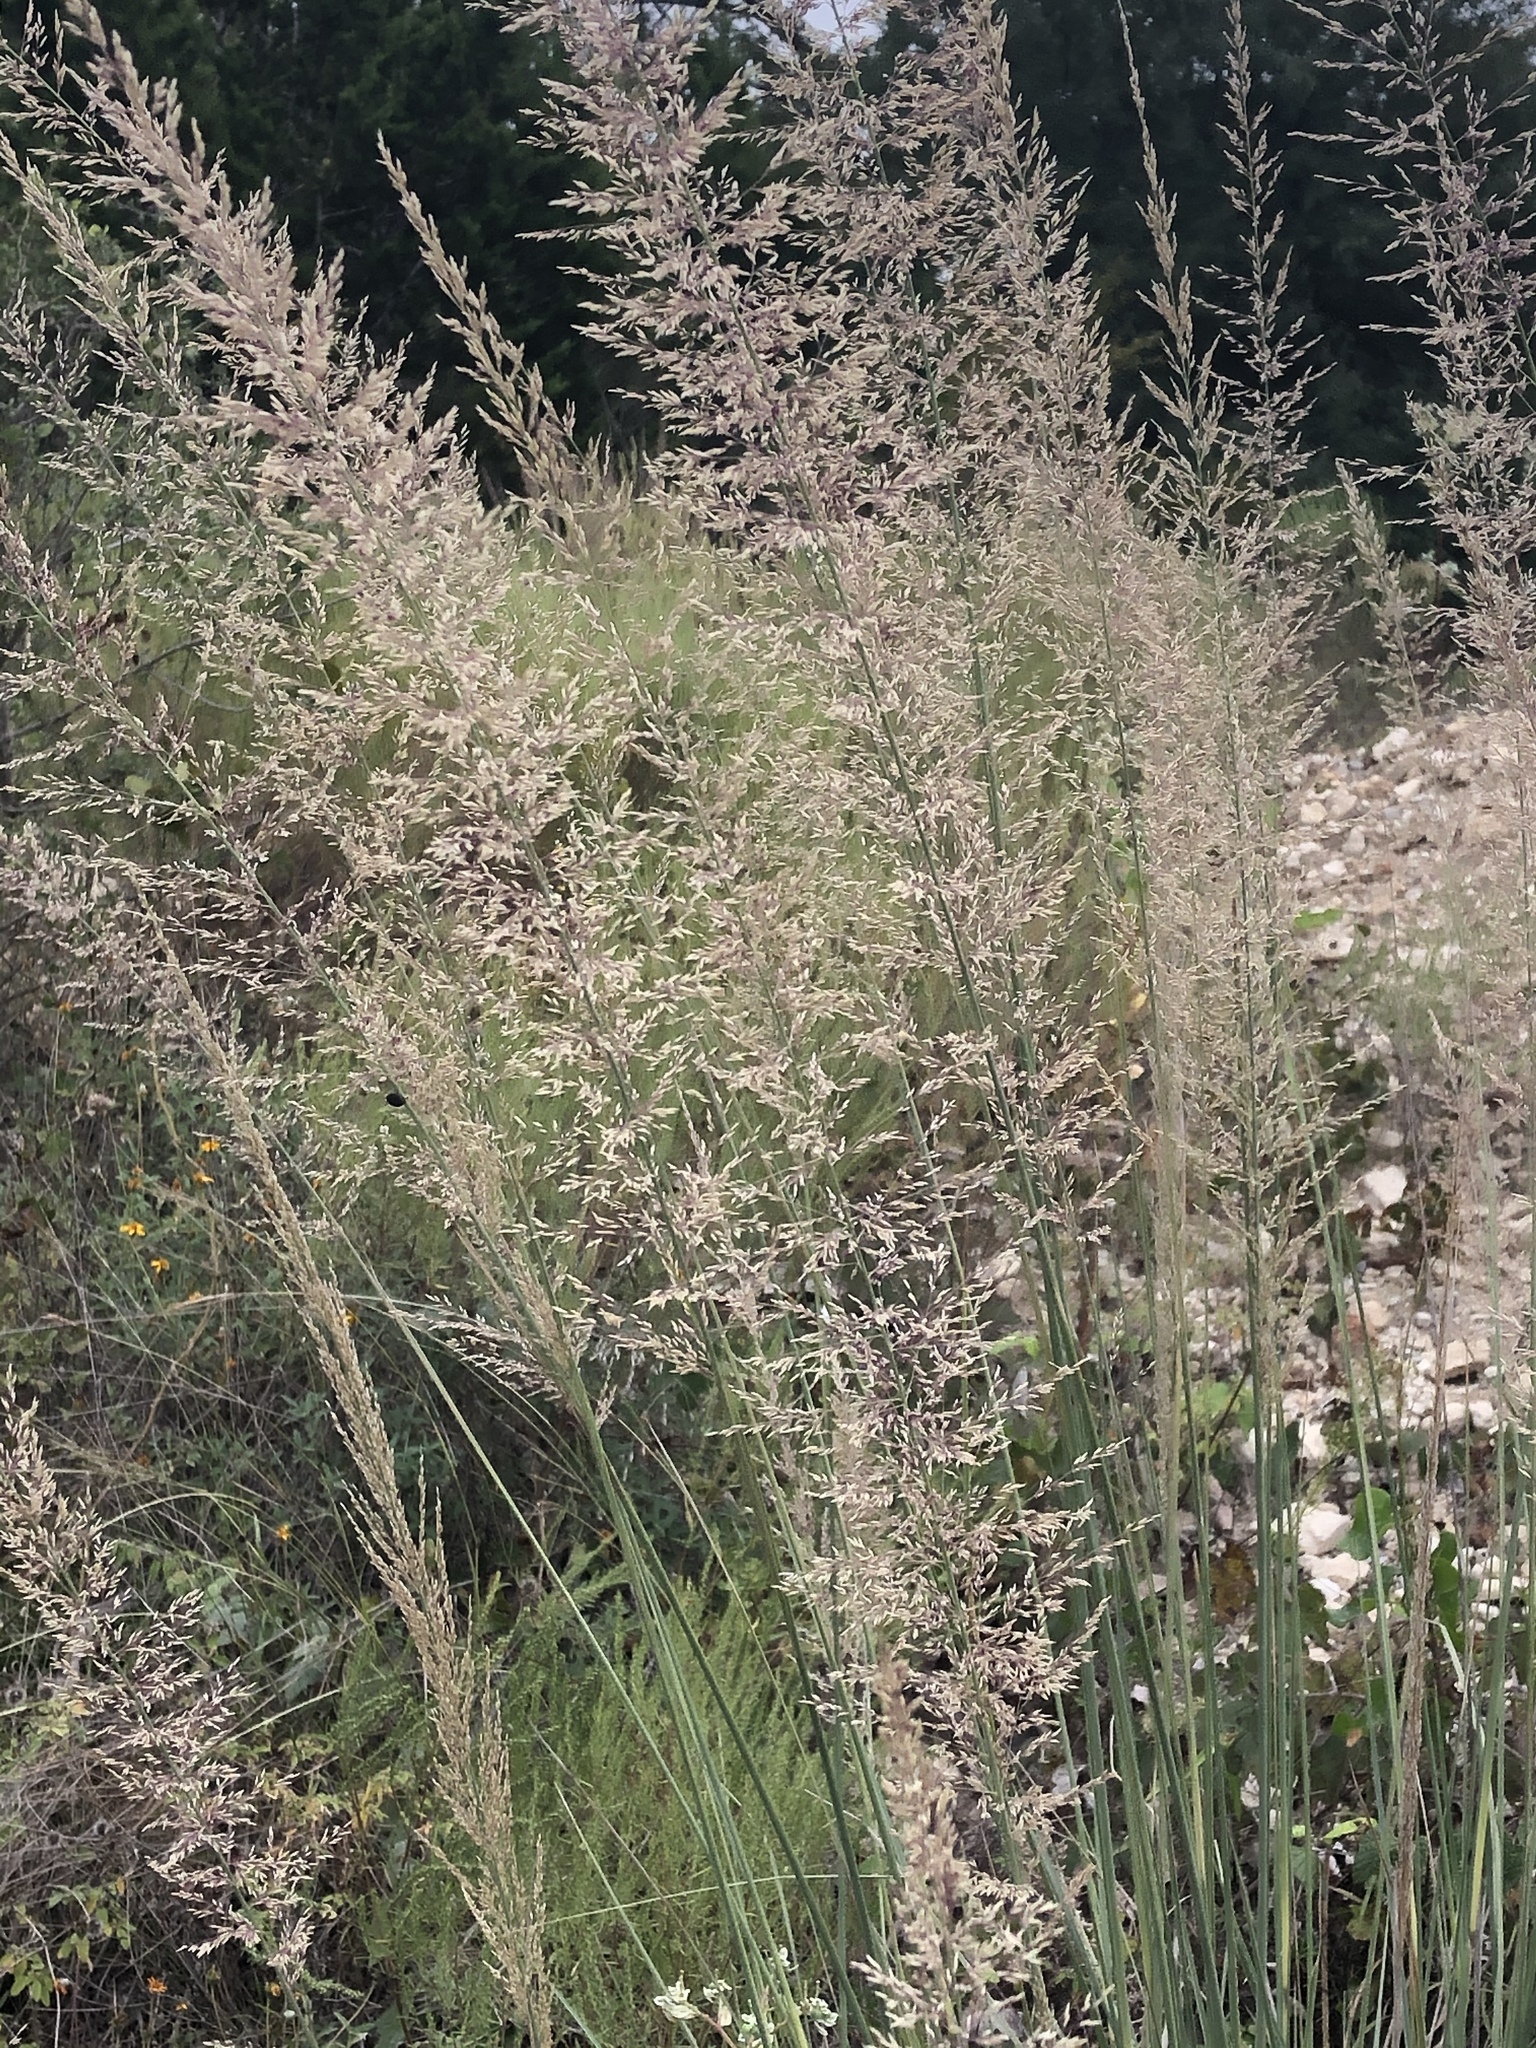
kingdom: Plantae
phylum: Tracheophyta
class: Liliopsida
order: Poales
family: Poaceae
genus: Muhlenbergia
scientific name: Muhlenbergia lindheimeri
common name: Lindheimer's muhly
